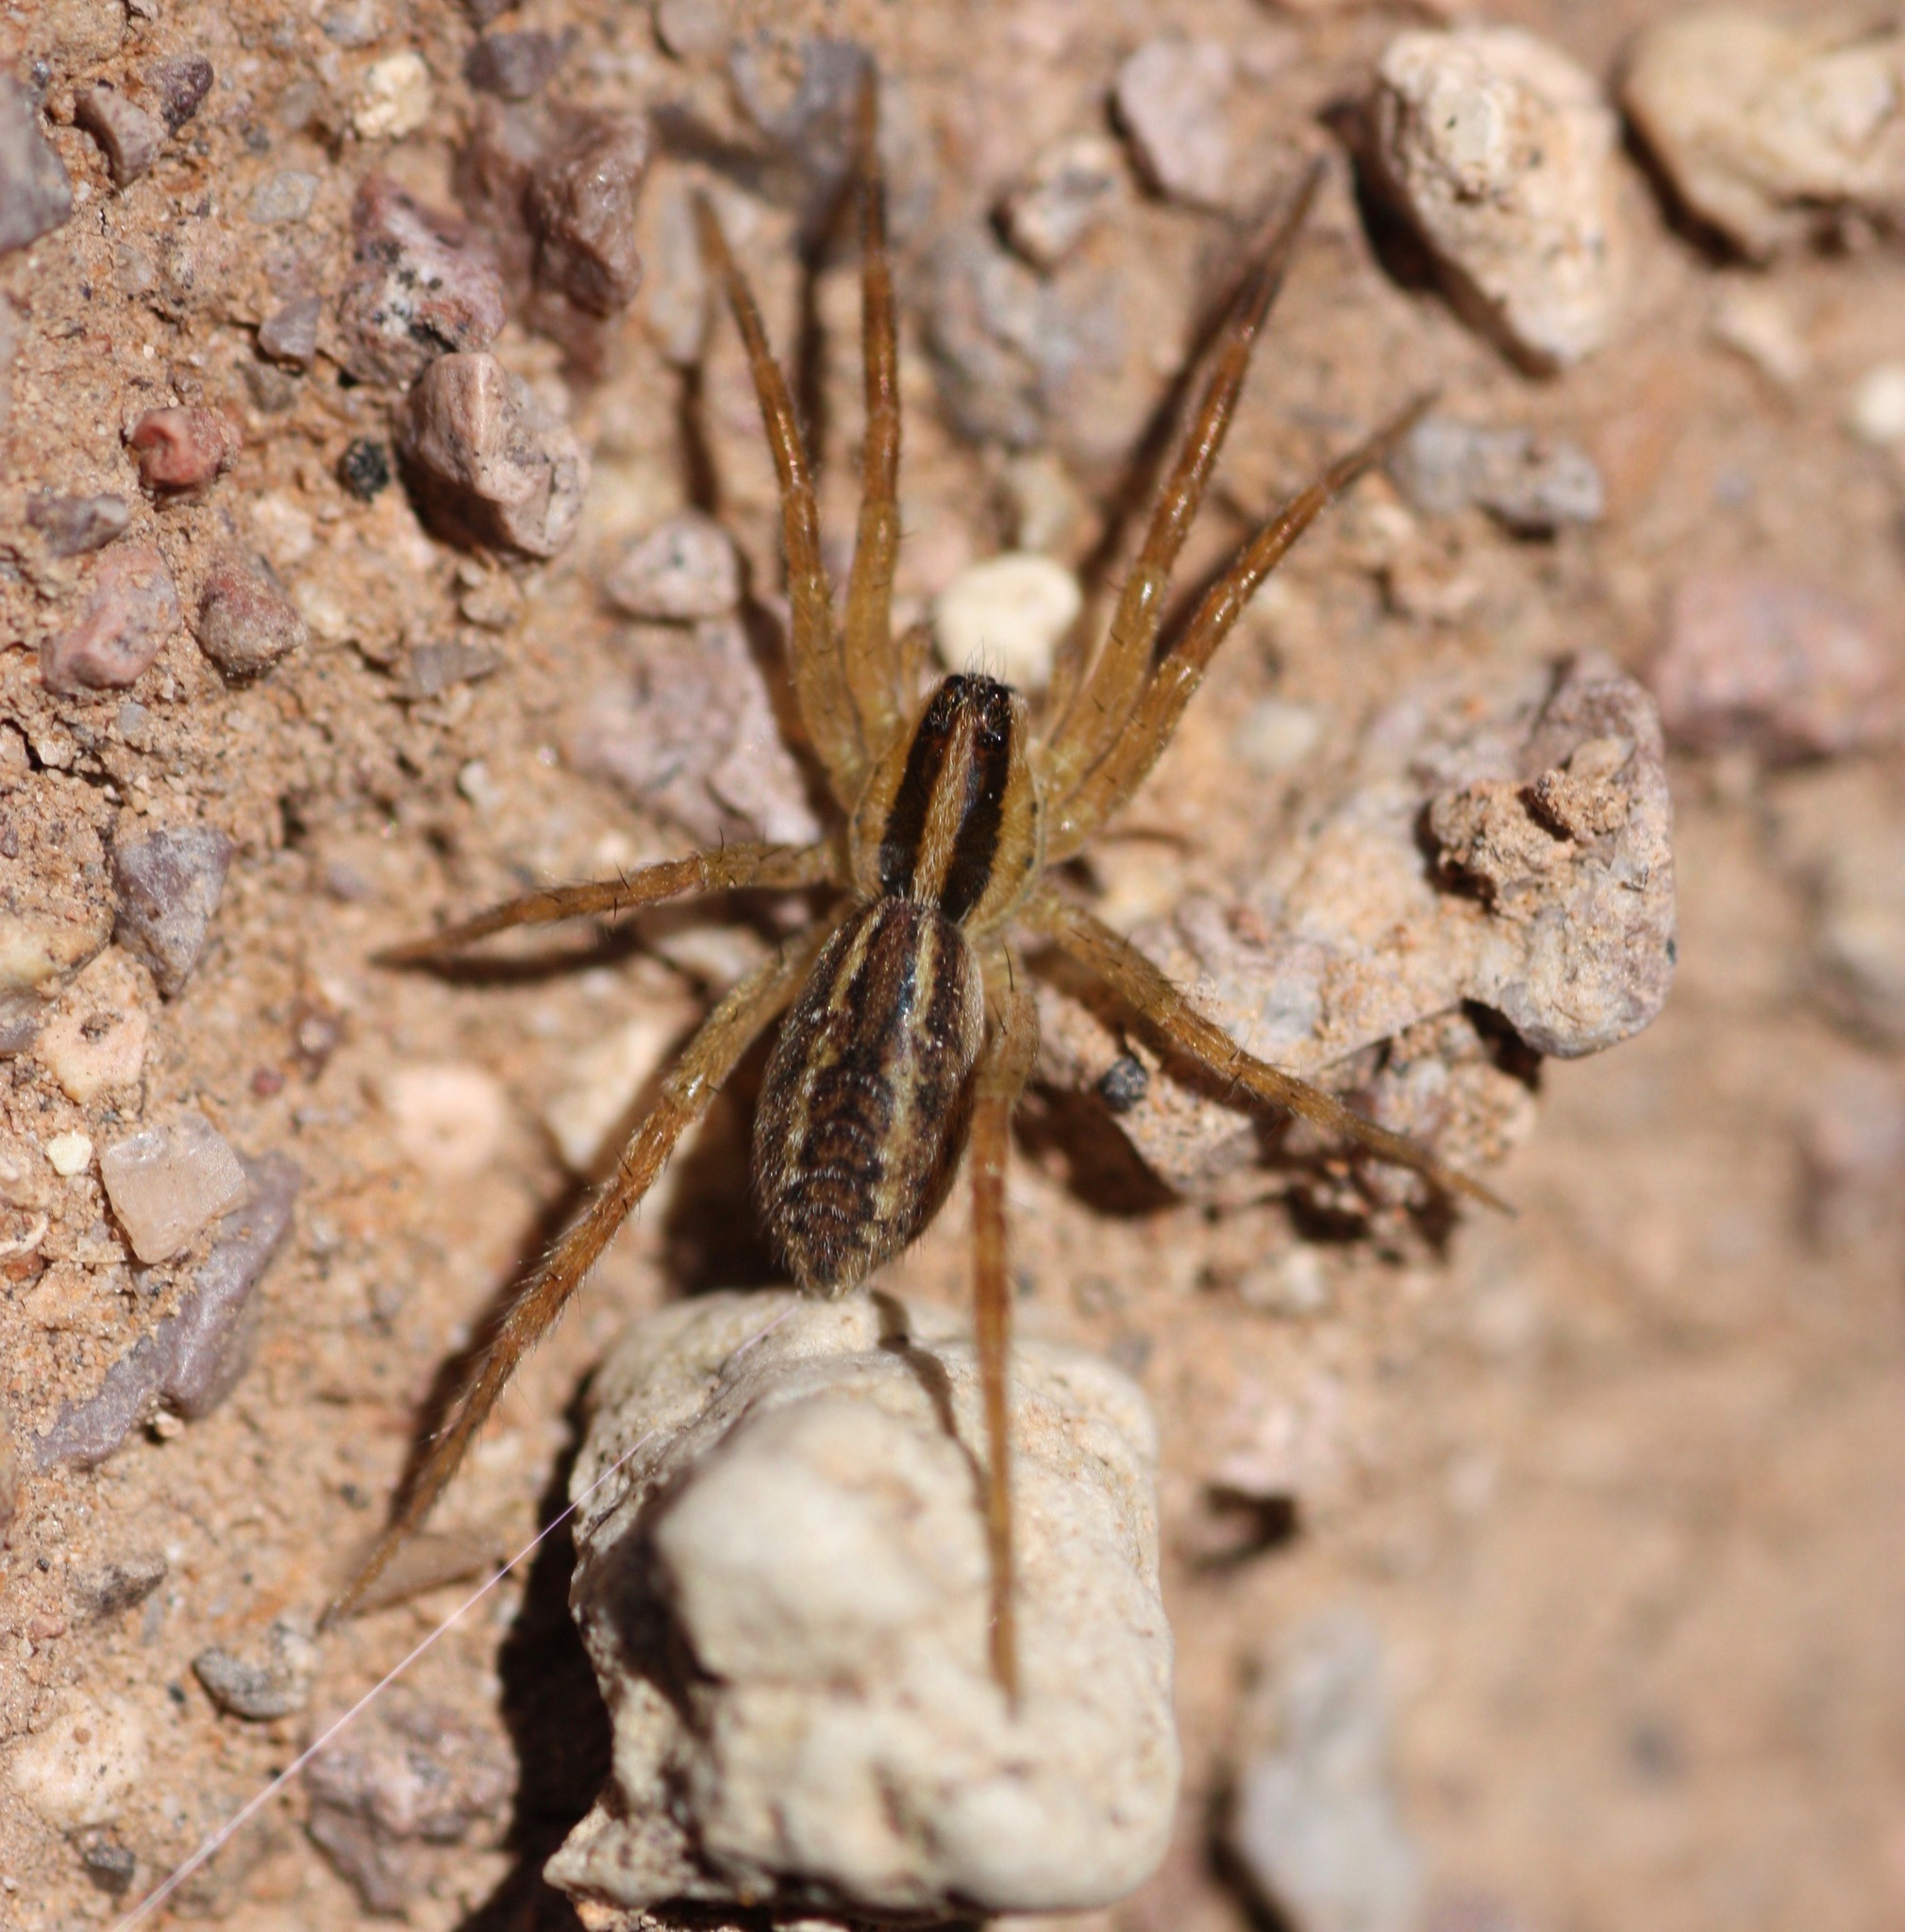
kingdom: Animalia
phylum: Arthropoda
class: Arachnida
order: Araneae
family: Lycosidae
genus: Rabidosa
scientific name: Rabidosa santrita
